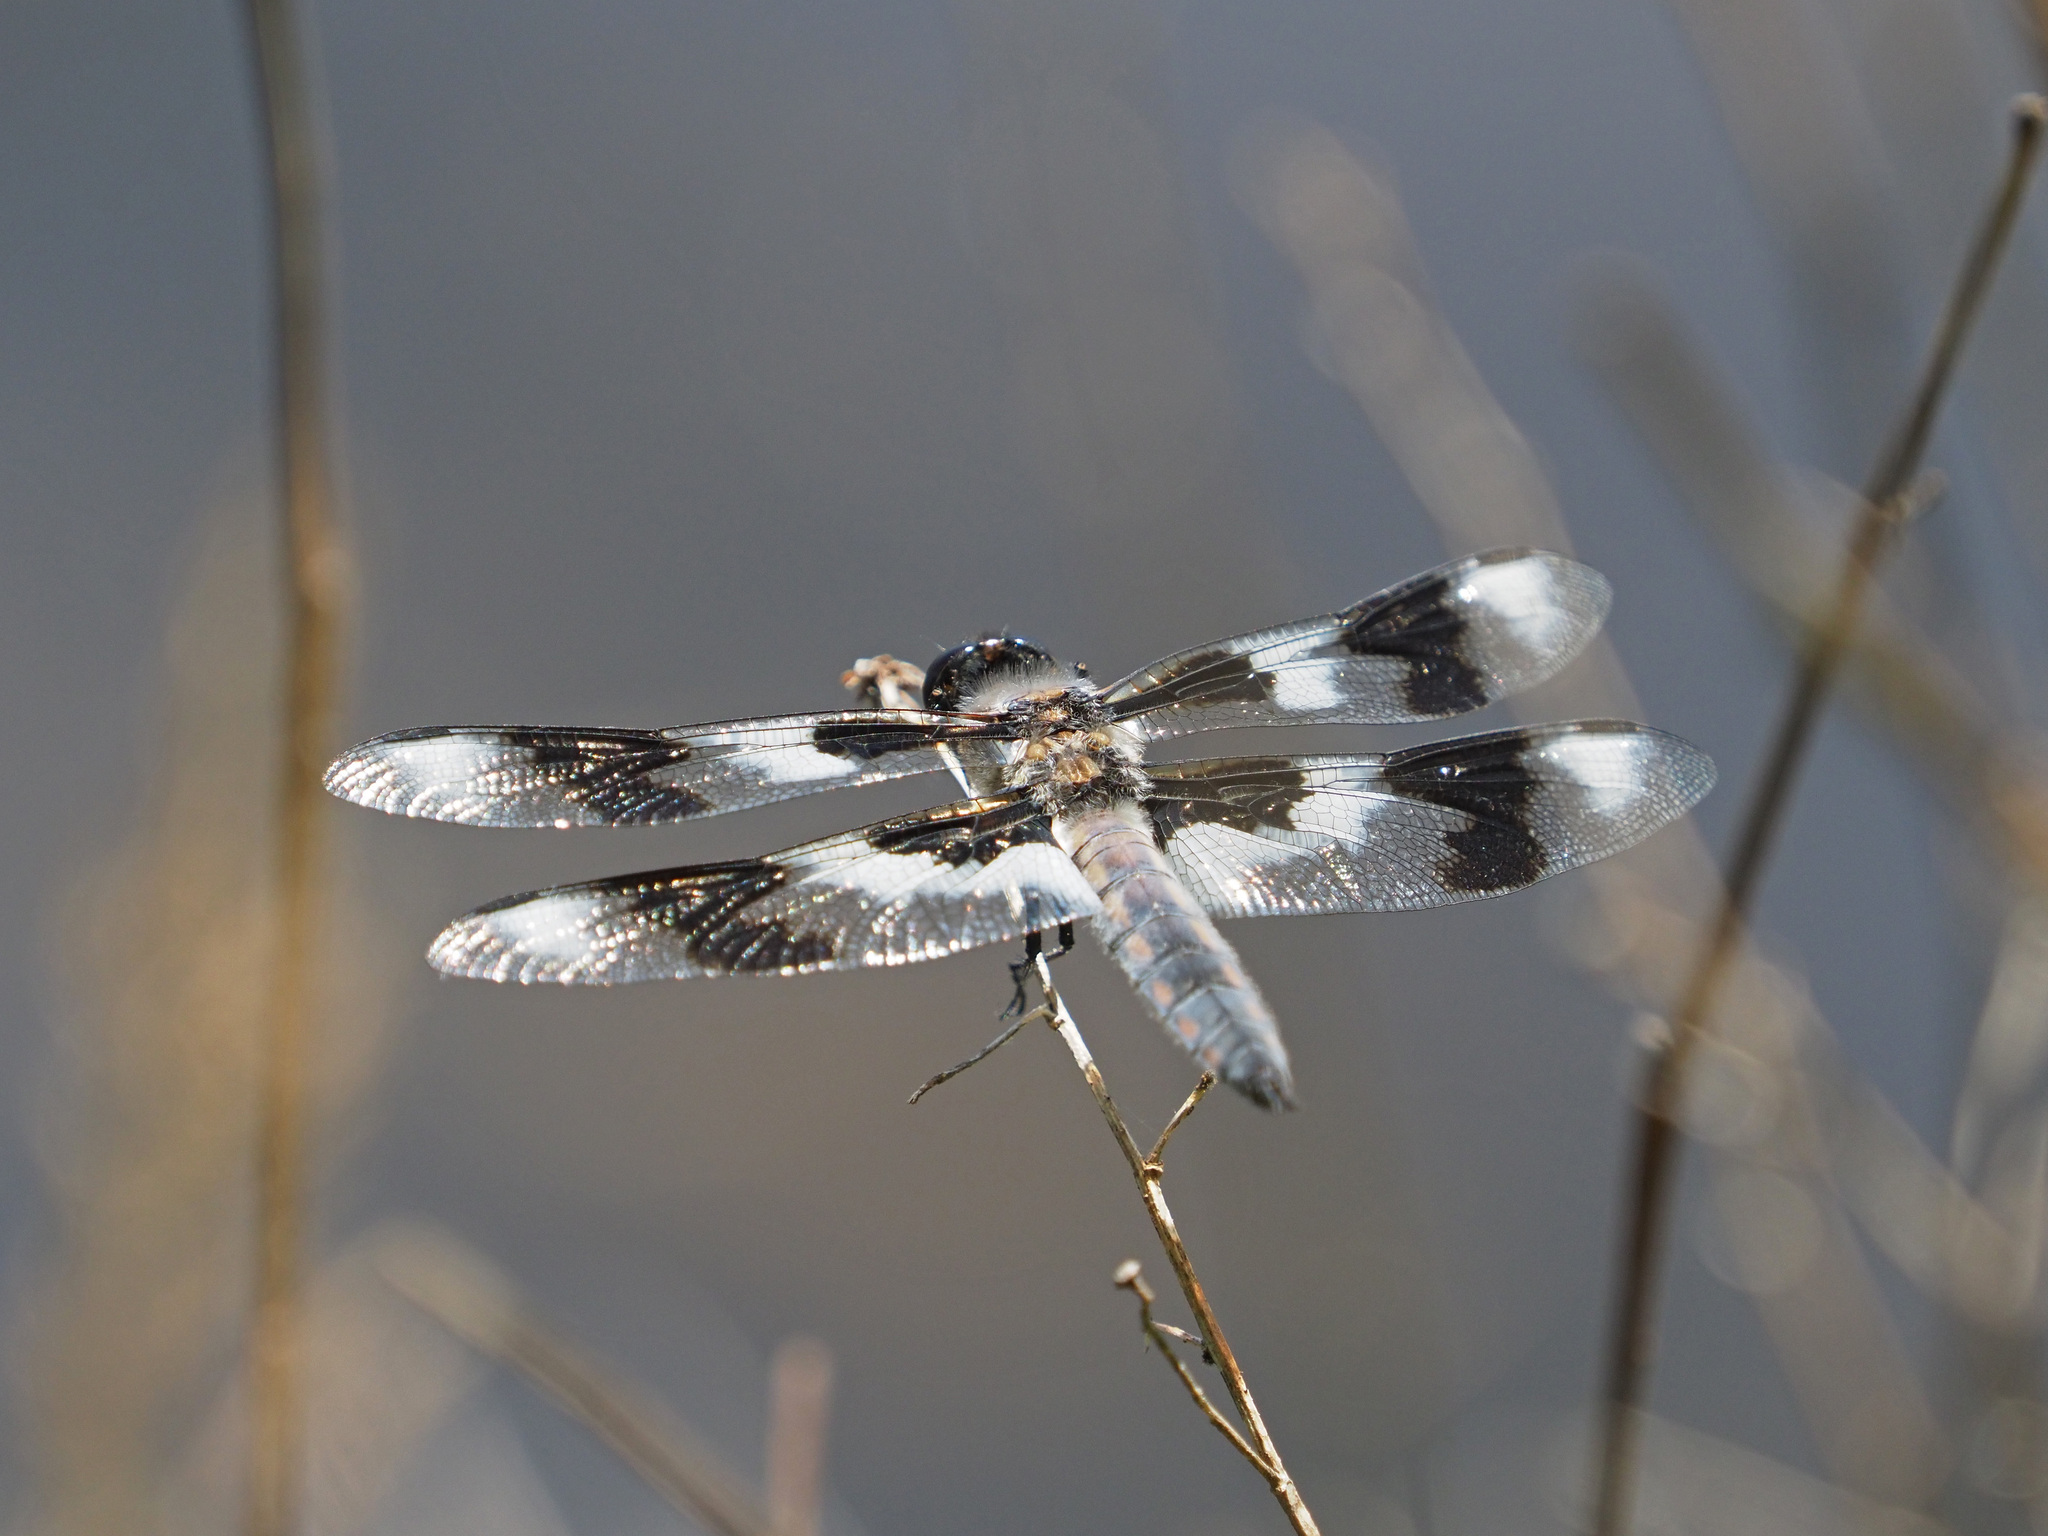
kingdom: Animalia
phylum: Arthropoda
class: Insecta
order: Odonata
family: Libellulidae
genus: Libellula
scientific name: Libellula forensis
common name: Eight-spotted skimmer
